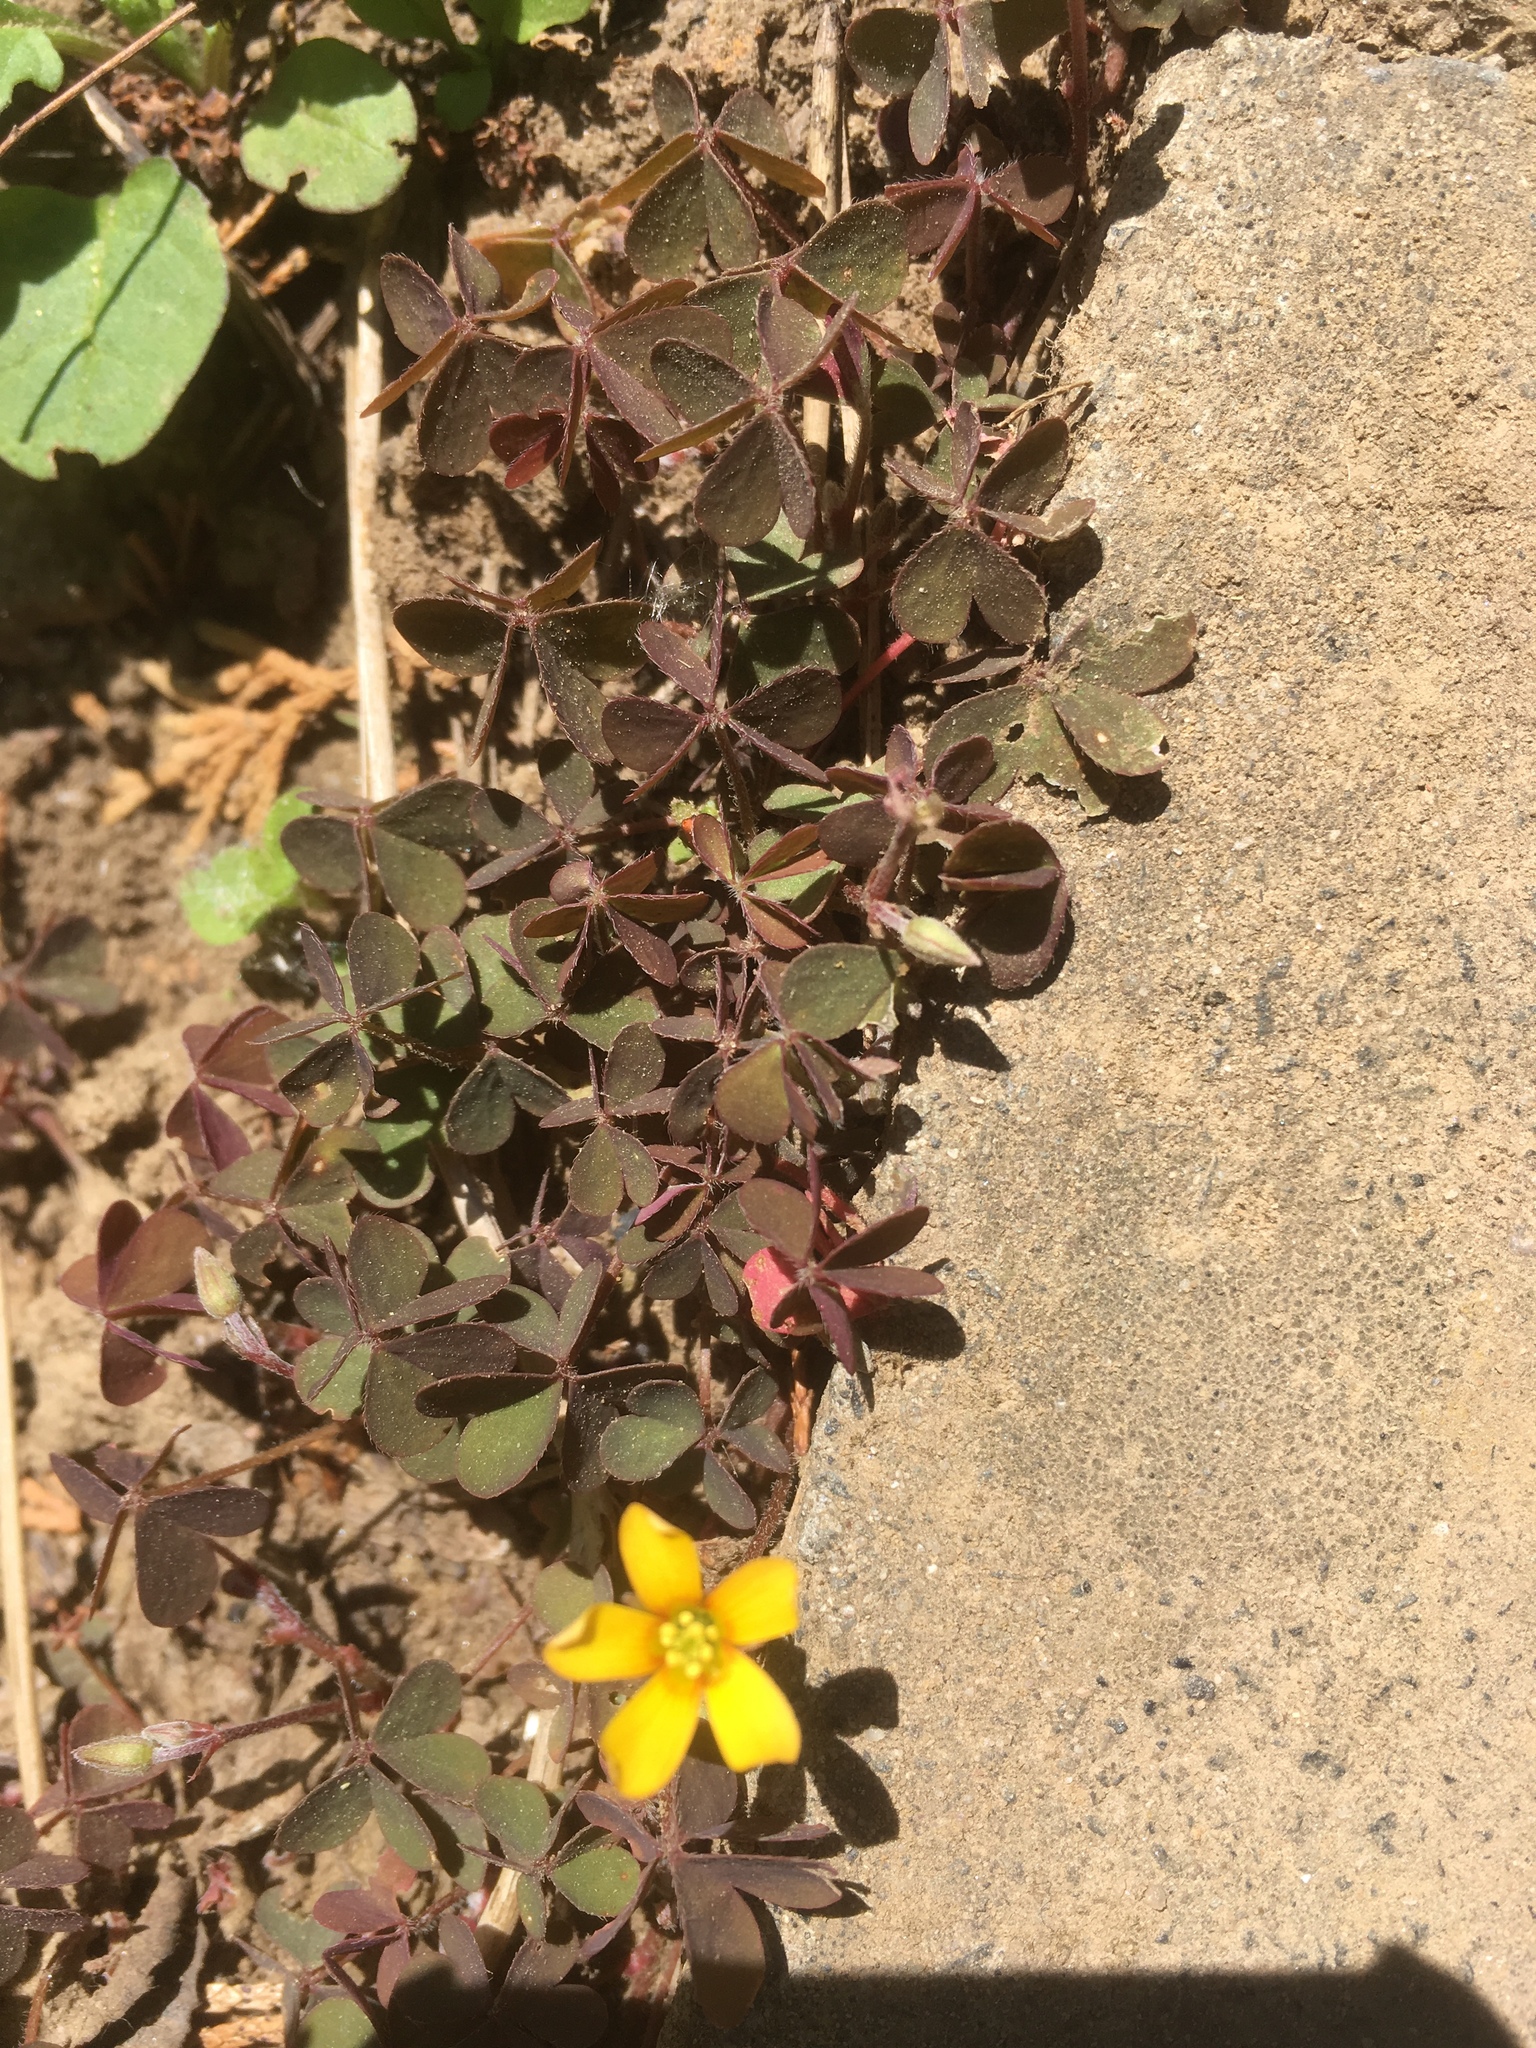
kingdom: Plantae
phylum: Tracheophyta
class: Magnoliopsida
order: Oxalidales
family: Oxalidaceae
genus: Oxalis
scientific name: Oxalis corniculata
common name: Procumbent yellow-sorrel
